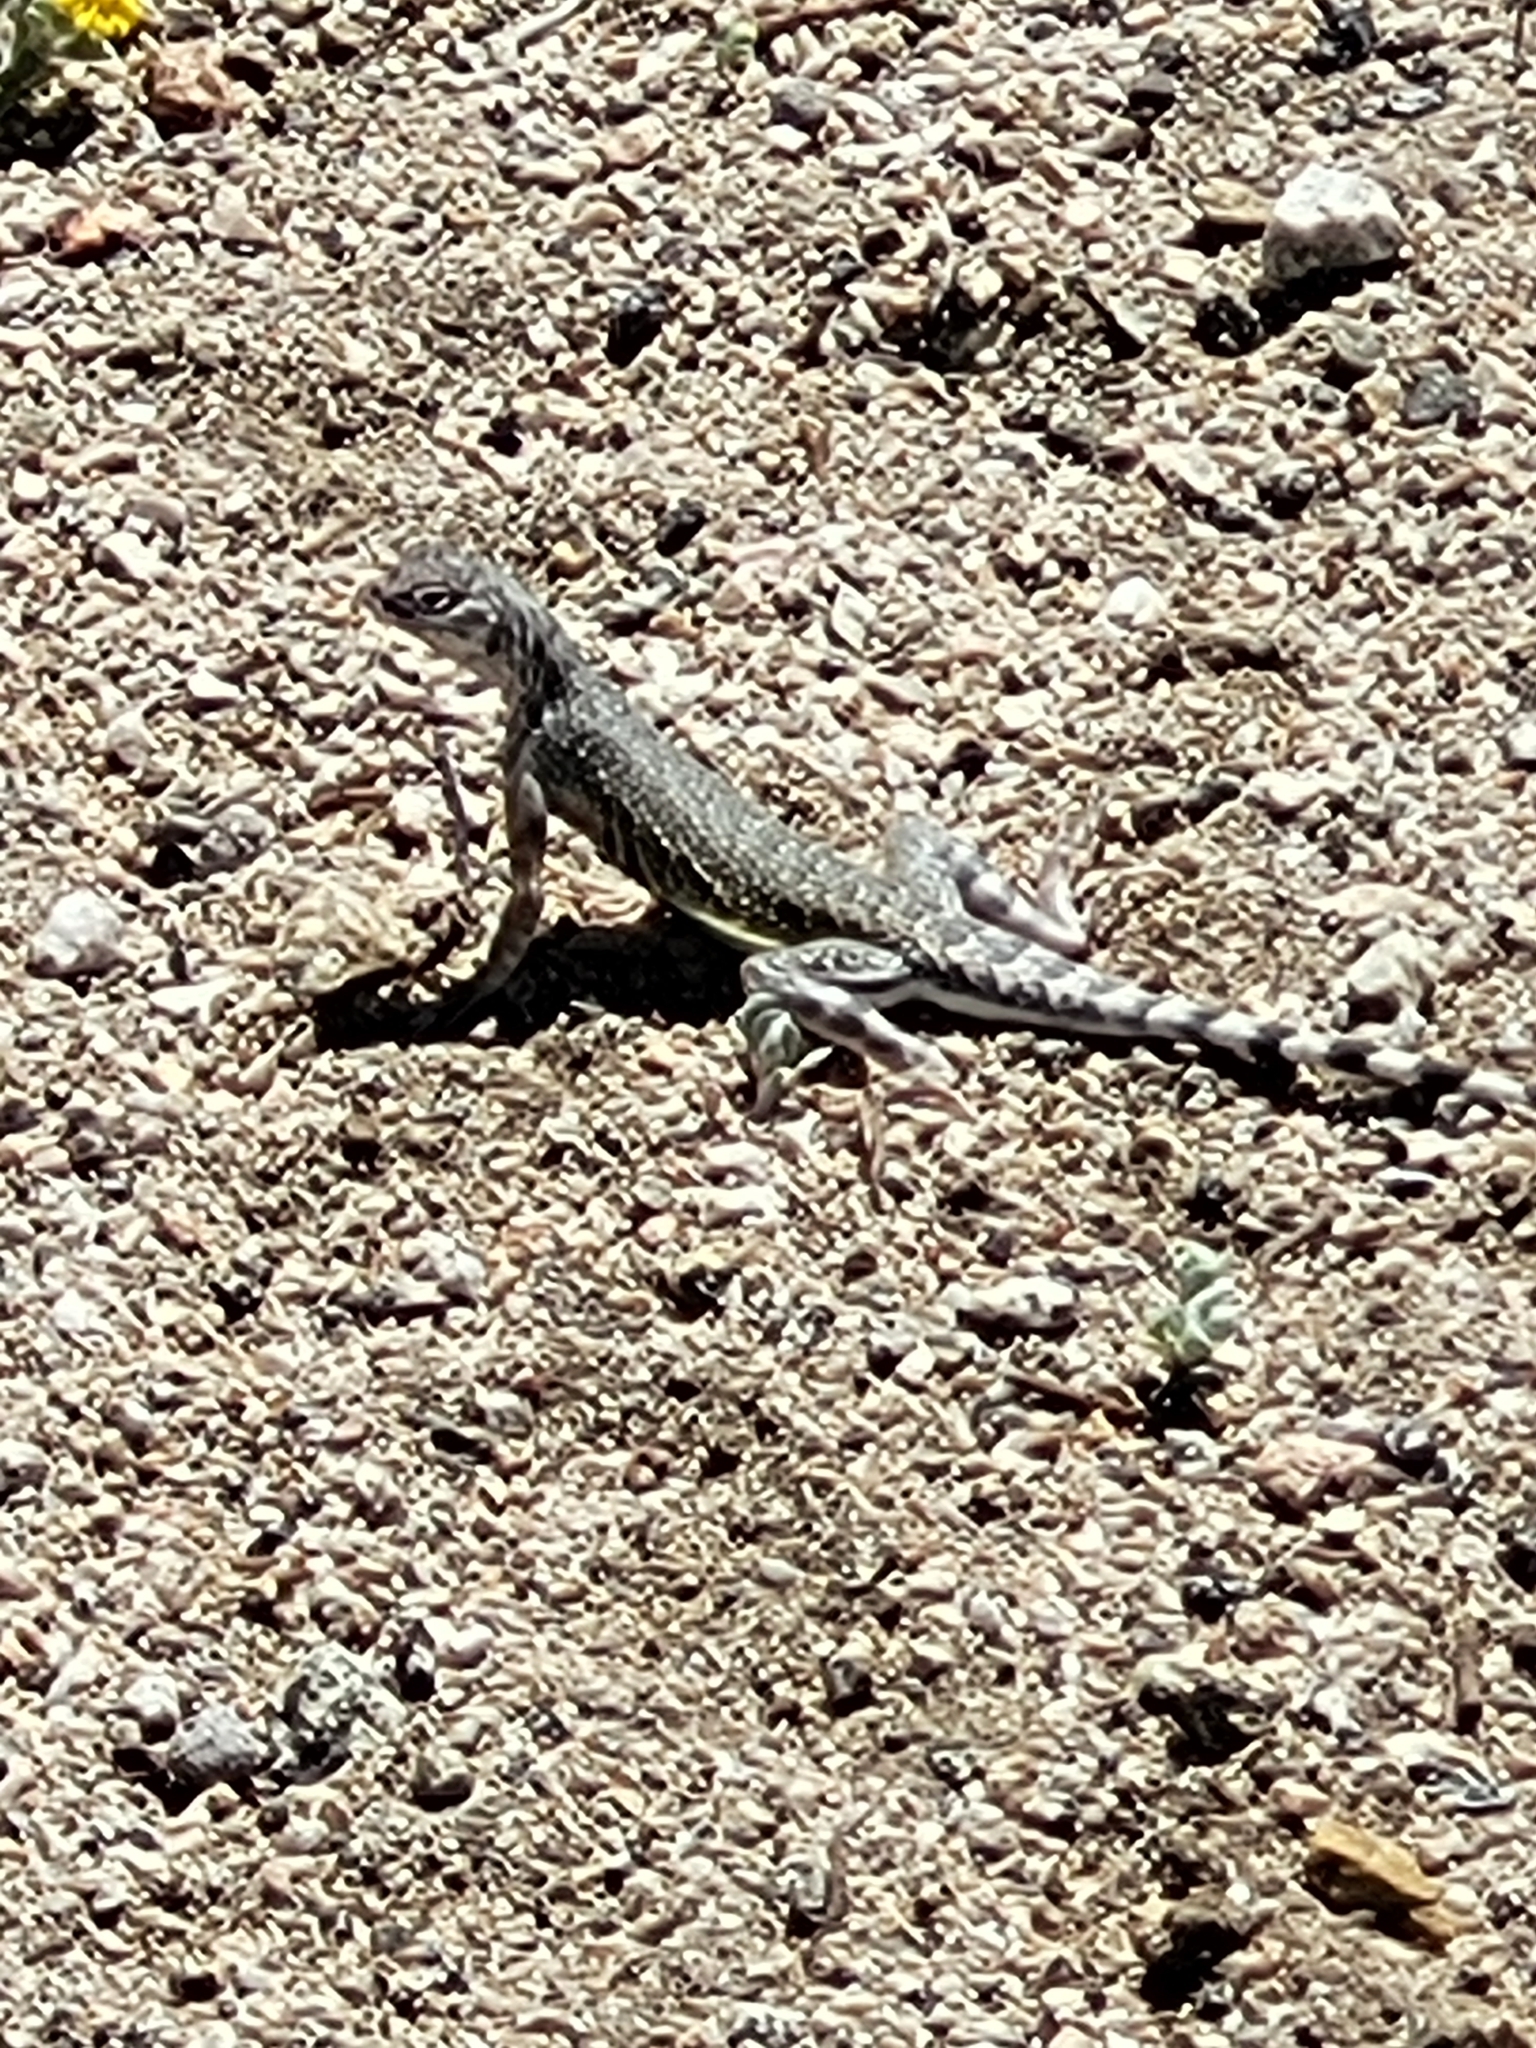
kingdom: Animalia
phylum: Chordata
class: Squamata
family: Phrynosomatidae
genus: Callisaurus
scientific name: Callisaurus draconoides
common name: Zebra-tailed lizard
